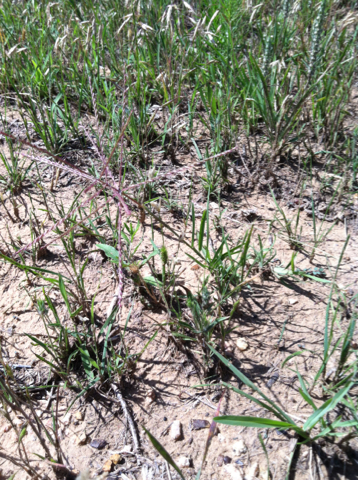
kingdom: Plantae
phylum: Tracheophyta
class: Liliopsida
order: Poales
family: Poaceae
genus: Chloris
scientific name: Chloris verticillata
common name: Tumble windmill grass
